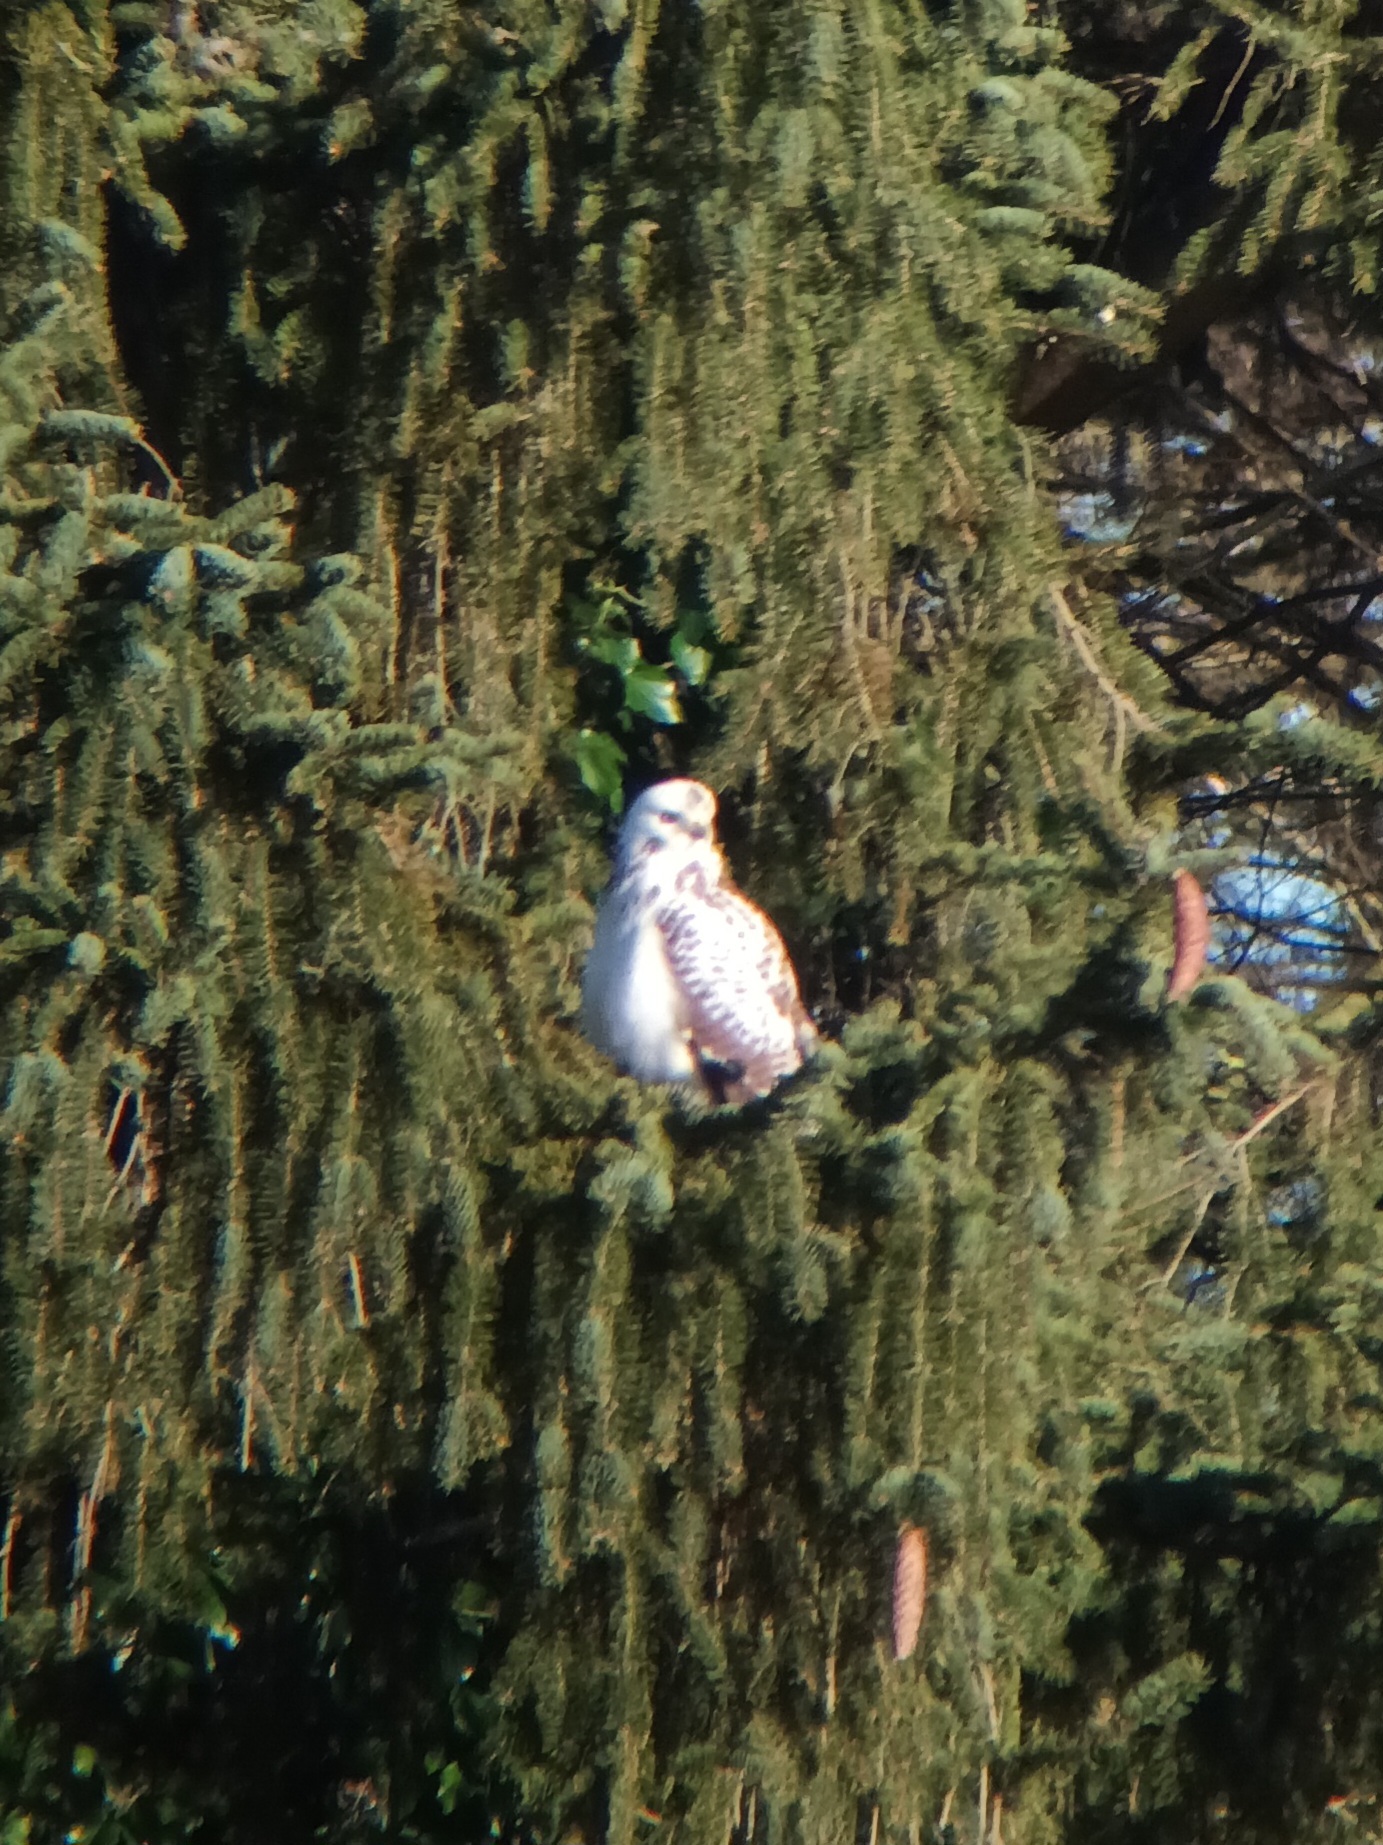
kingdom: Animalia
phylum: Chordata
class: Aves
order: Accipitriformes
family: Accipitridae
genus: Buteo
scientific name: Buteo buteo
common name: Common buzzard
